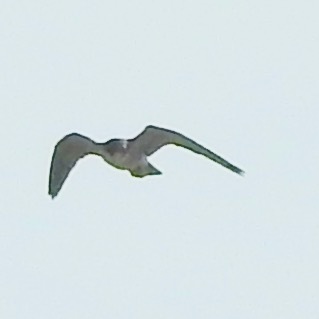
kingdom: Animalia
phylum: Chordata
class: Aves
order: Falconiformes
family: Falconidae
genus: Falco
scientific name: Falco peregrinus
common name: Peregrine falcon
